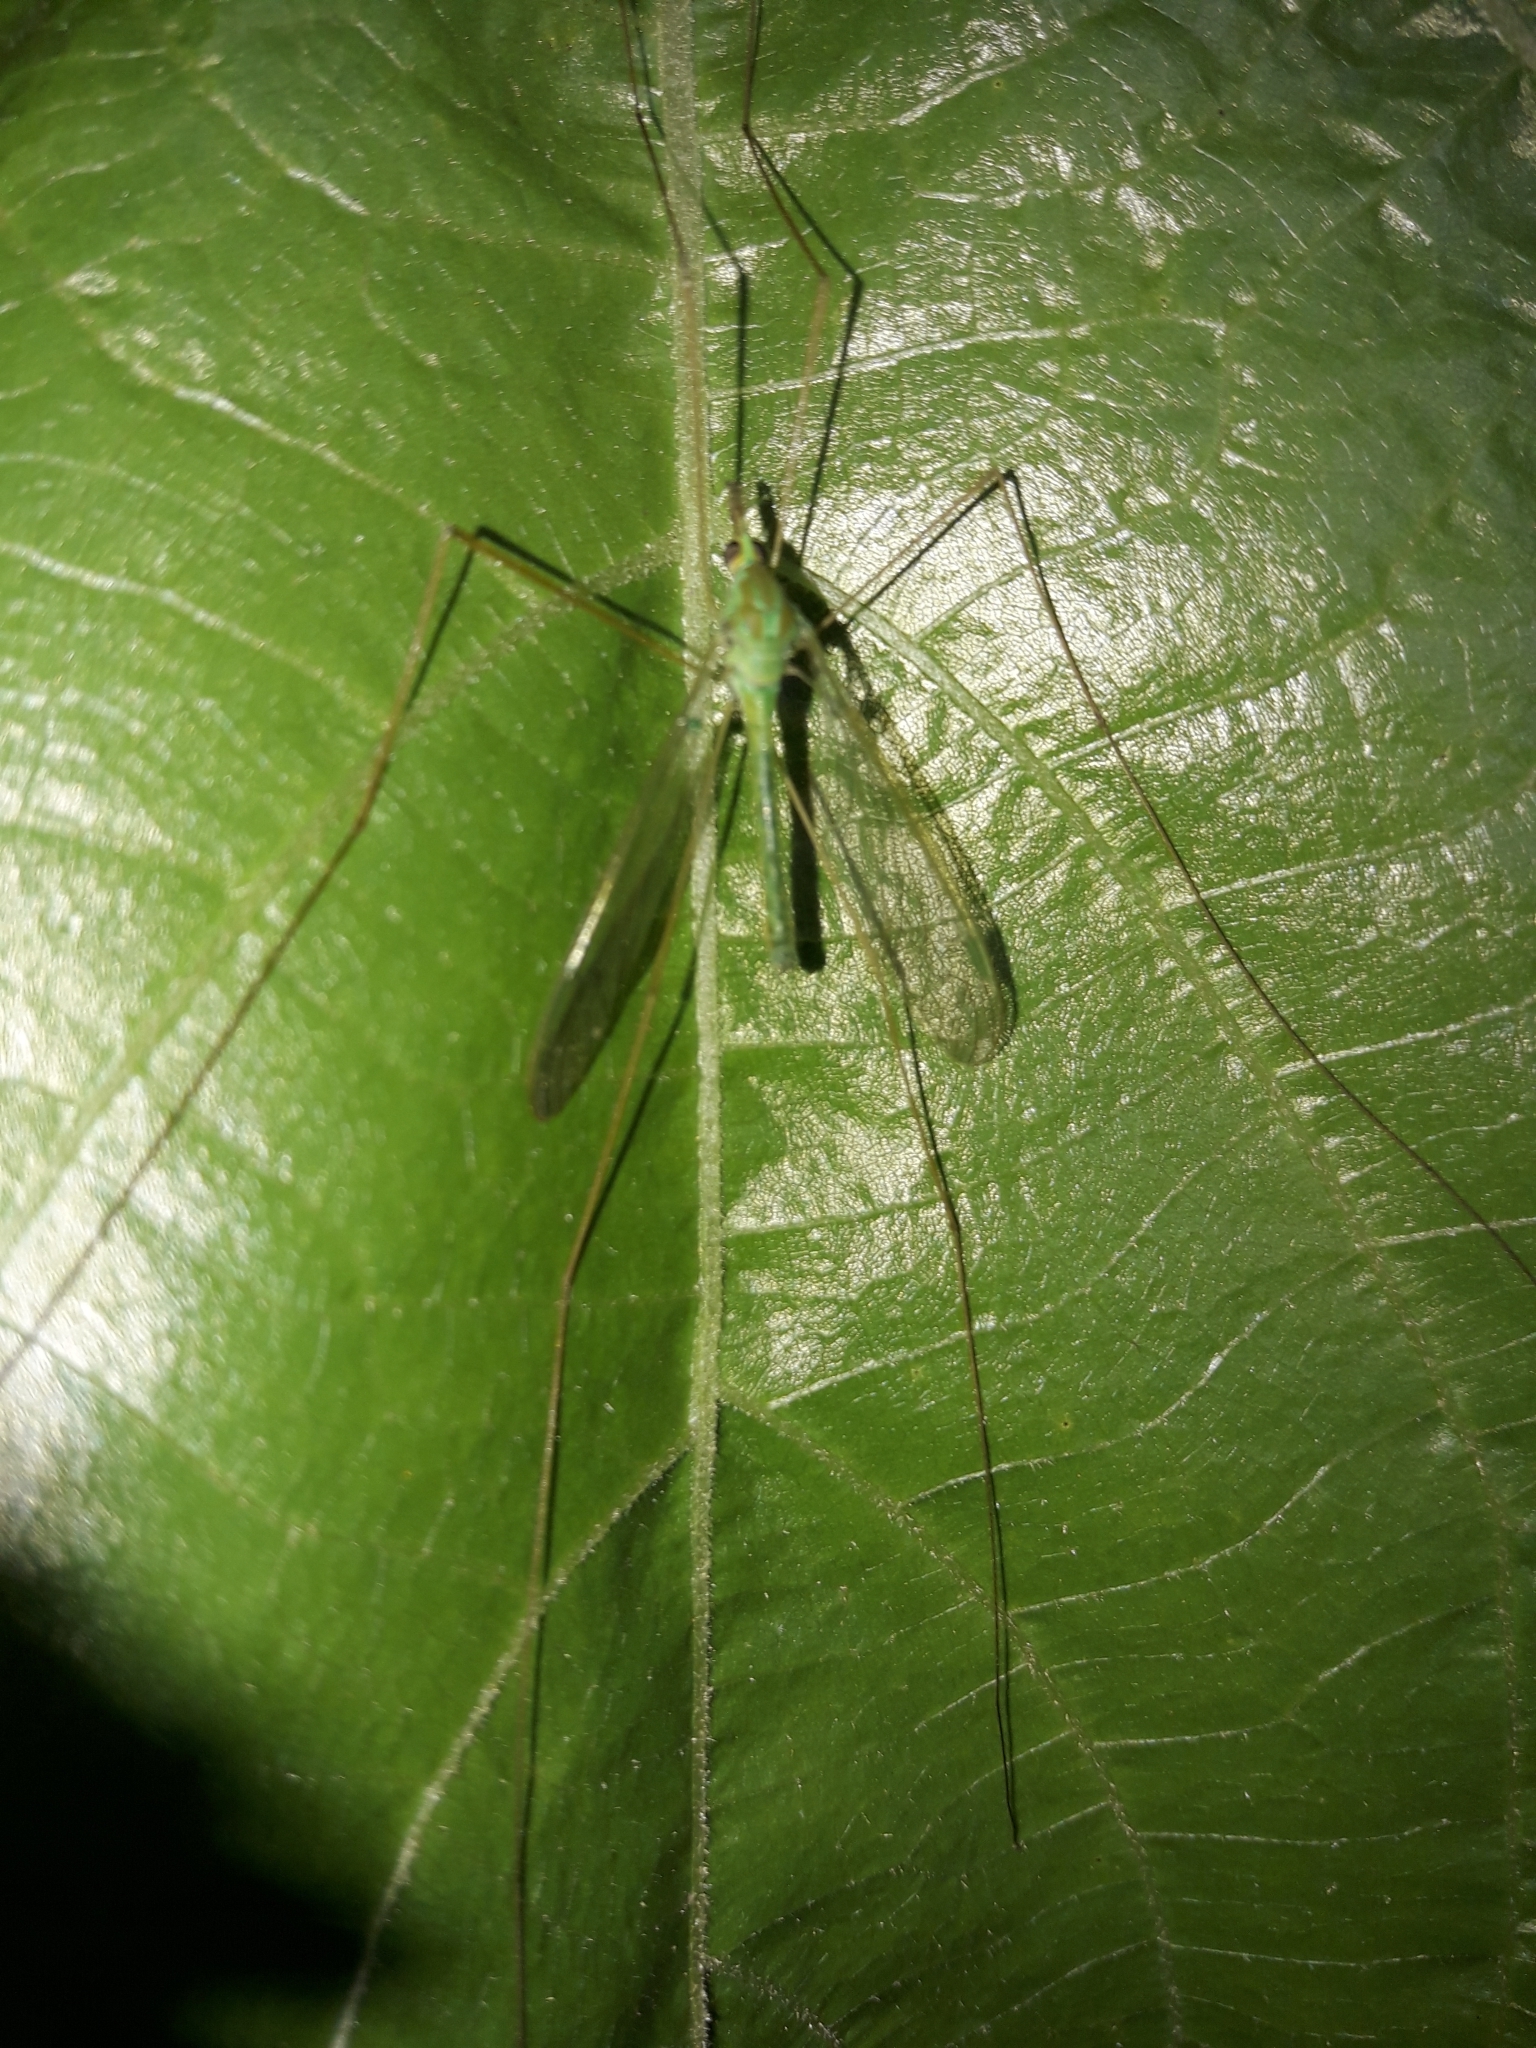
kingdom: Animalia
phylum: Arthropoda
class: Insecta
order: Diptera
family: Tipulidae
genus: Leptotarsus
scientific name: Leptotarsus virescens
